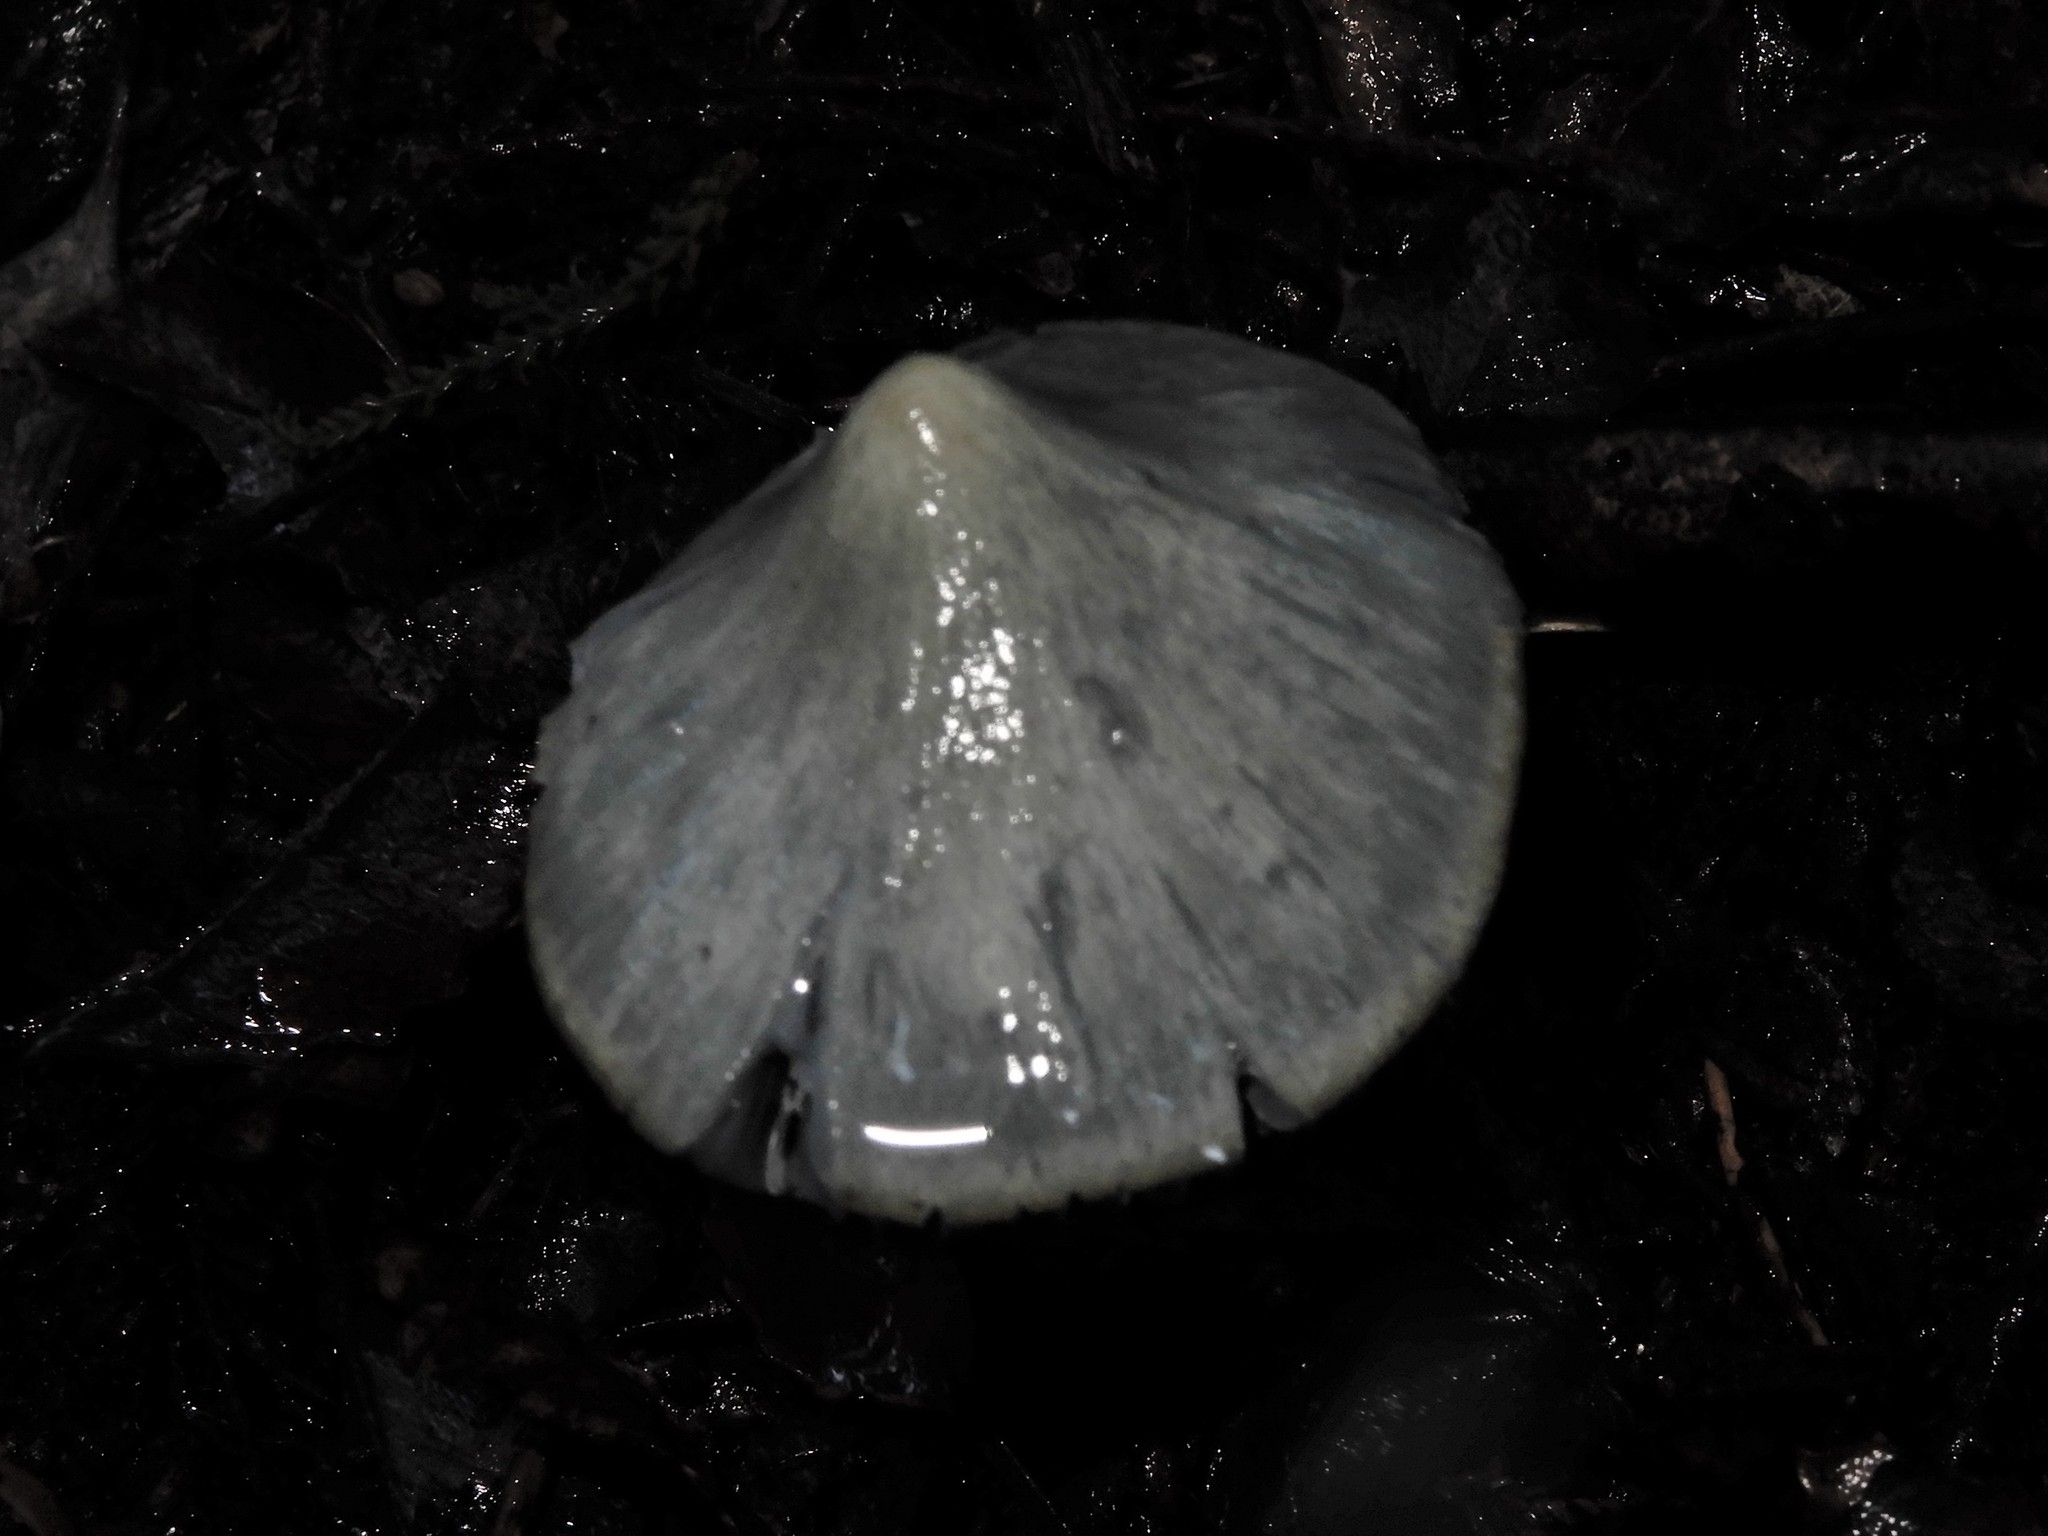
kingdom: Fungi
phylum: Basidiomycota
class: Agaricomycetes
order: Agaricales
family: Entolomataceae
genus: Entoloma
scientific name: Entoloma canoconicum
